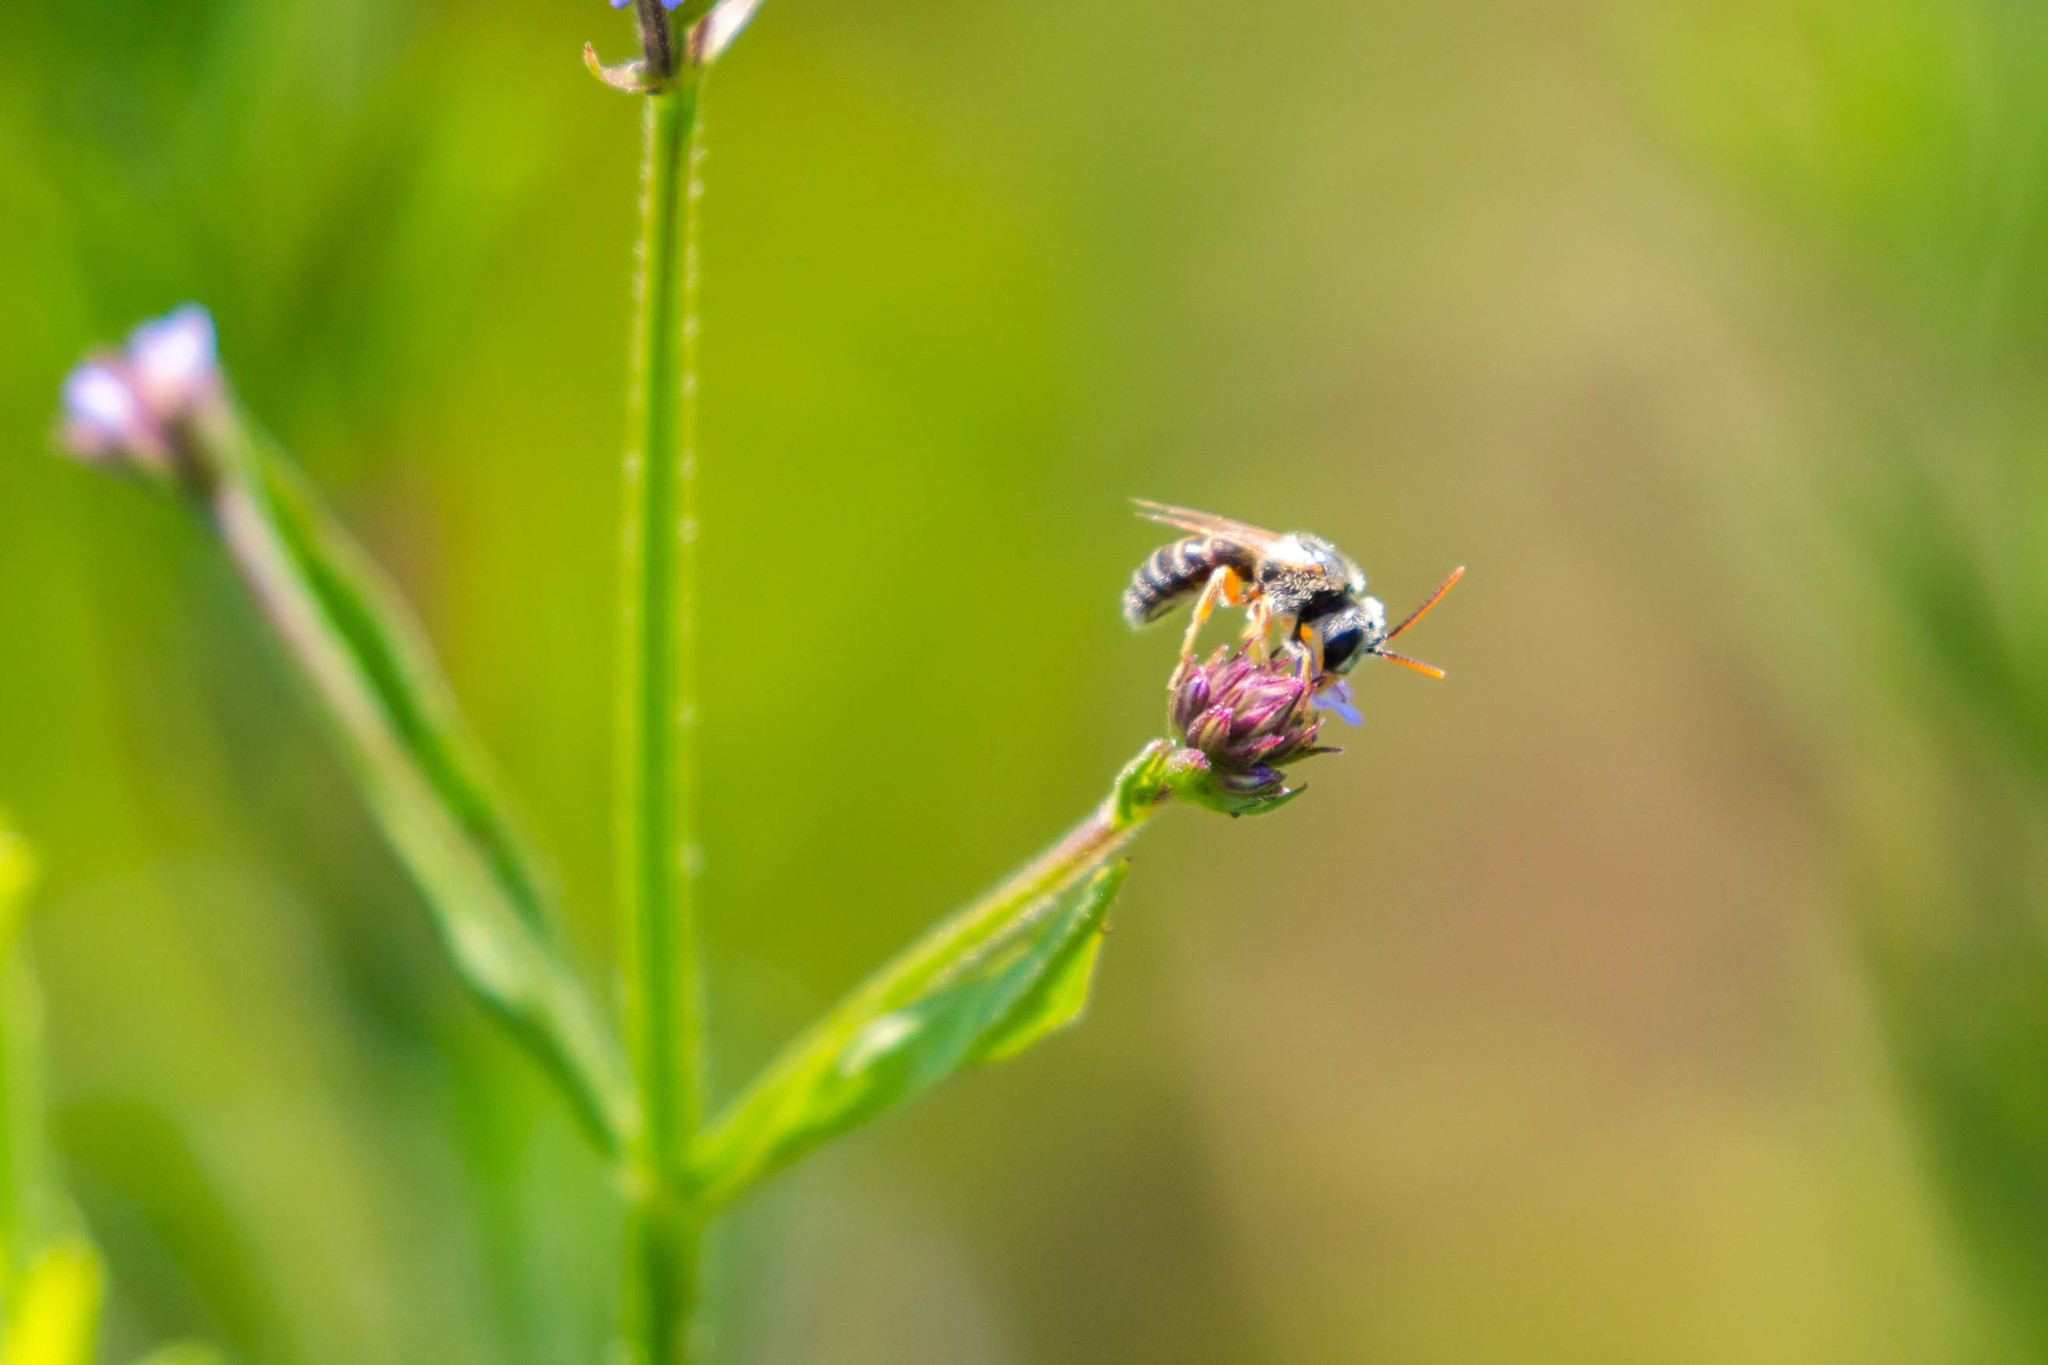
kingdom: Animalia
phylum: Arthropoda
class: Insecta
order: Hymenoptera
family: Halictidae
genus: Halictus
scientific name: Halictus ligatus
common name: Ligated furrow bee
